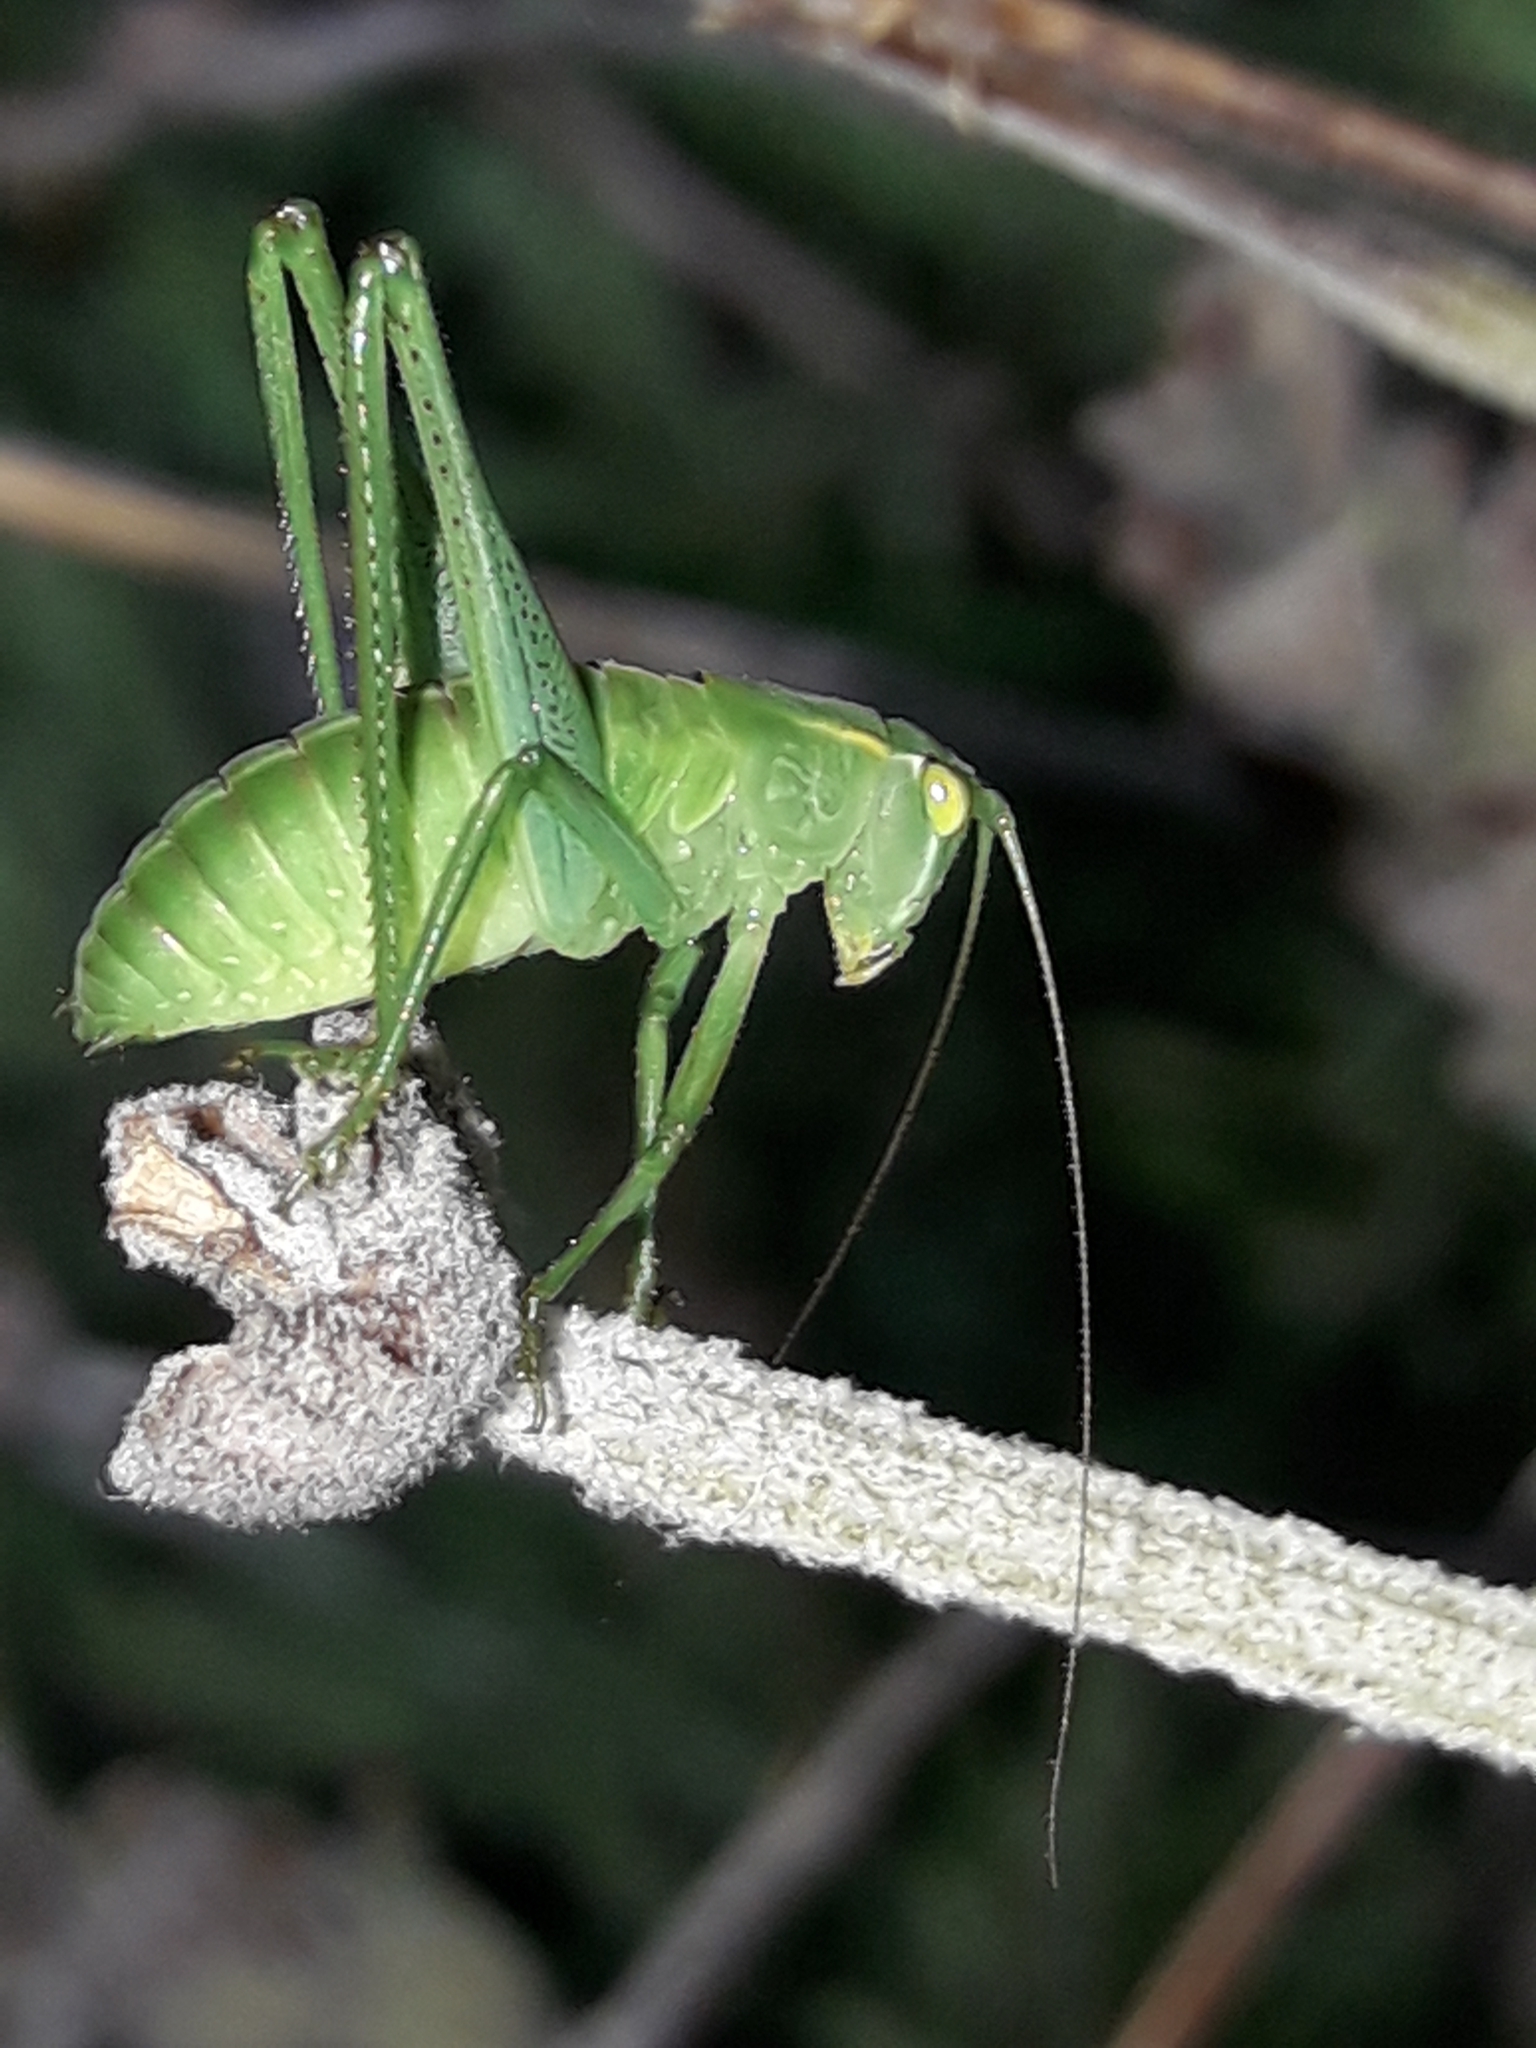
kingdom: Animalia
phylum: Arthropoda
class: Insecta
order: Orthoptera
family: Tettigoniidae
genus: Caedicia
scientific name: Caedicia simplex
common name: Common garden katydid
